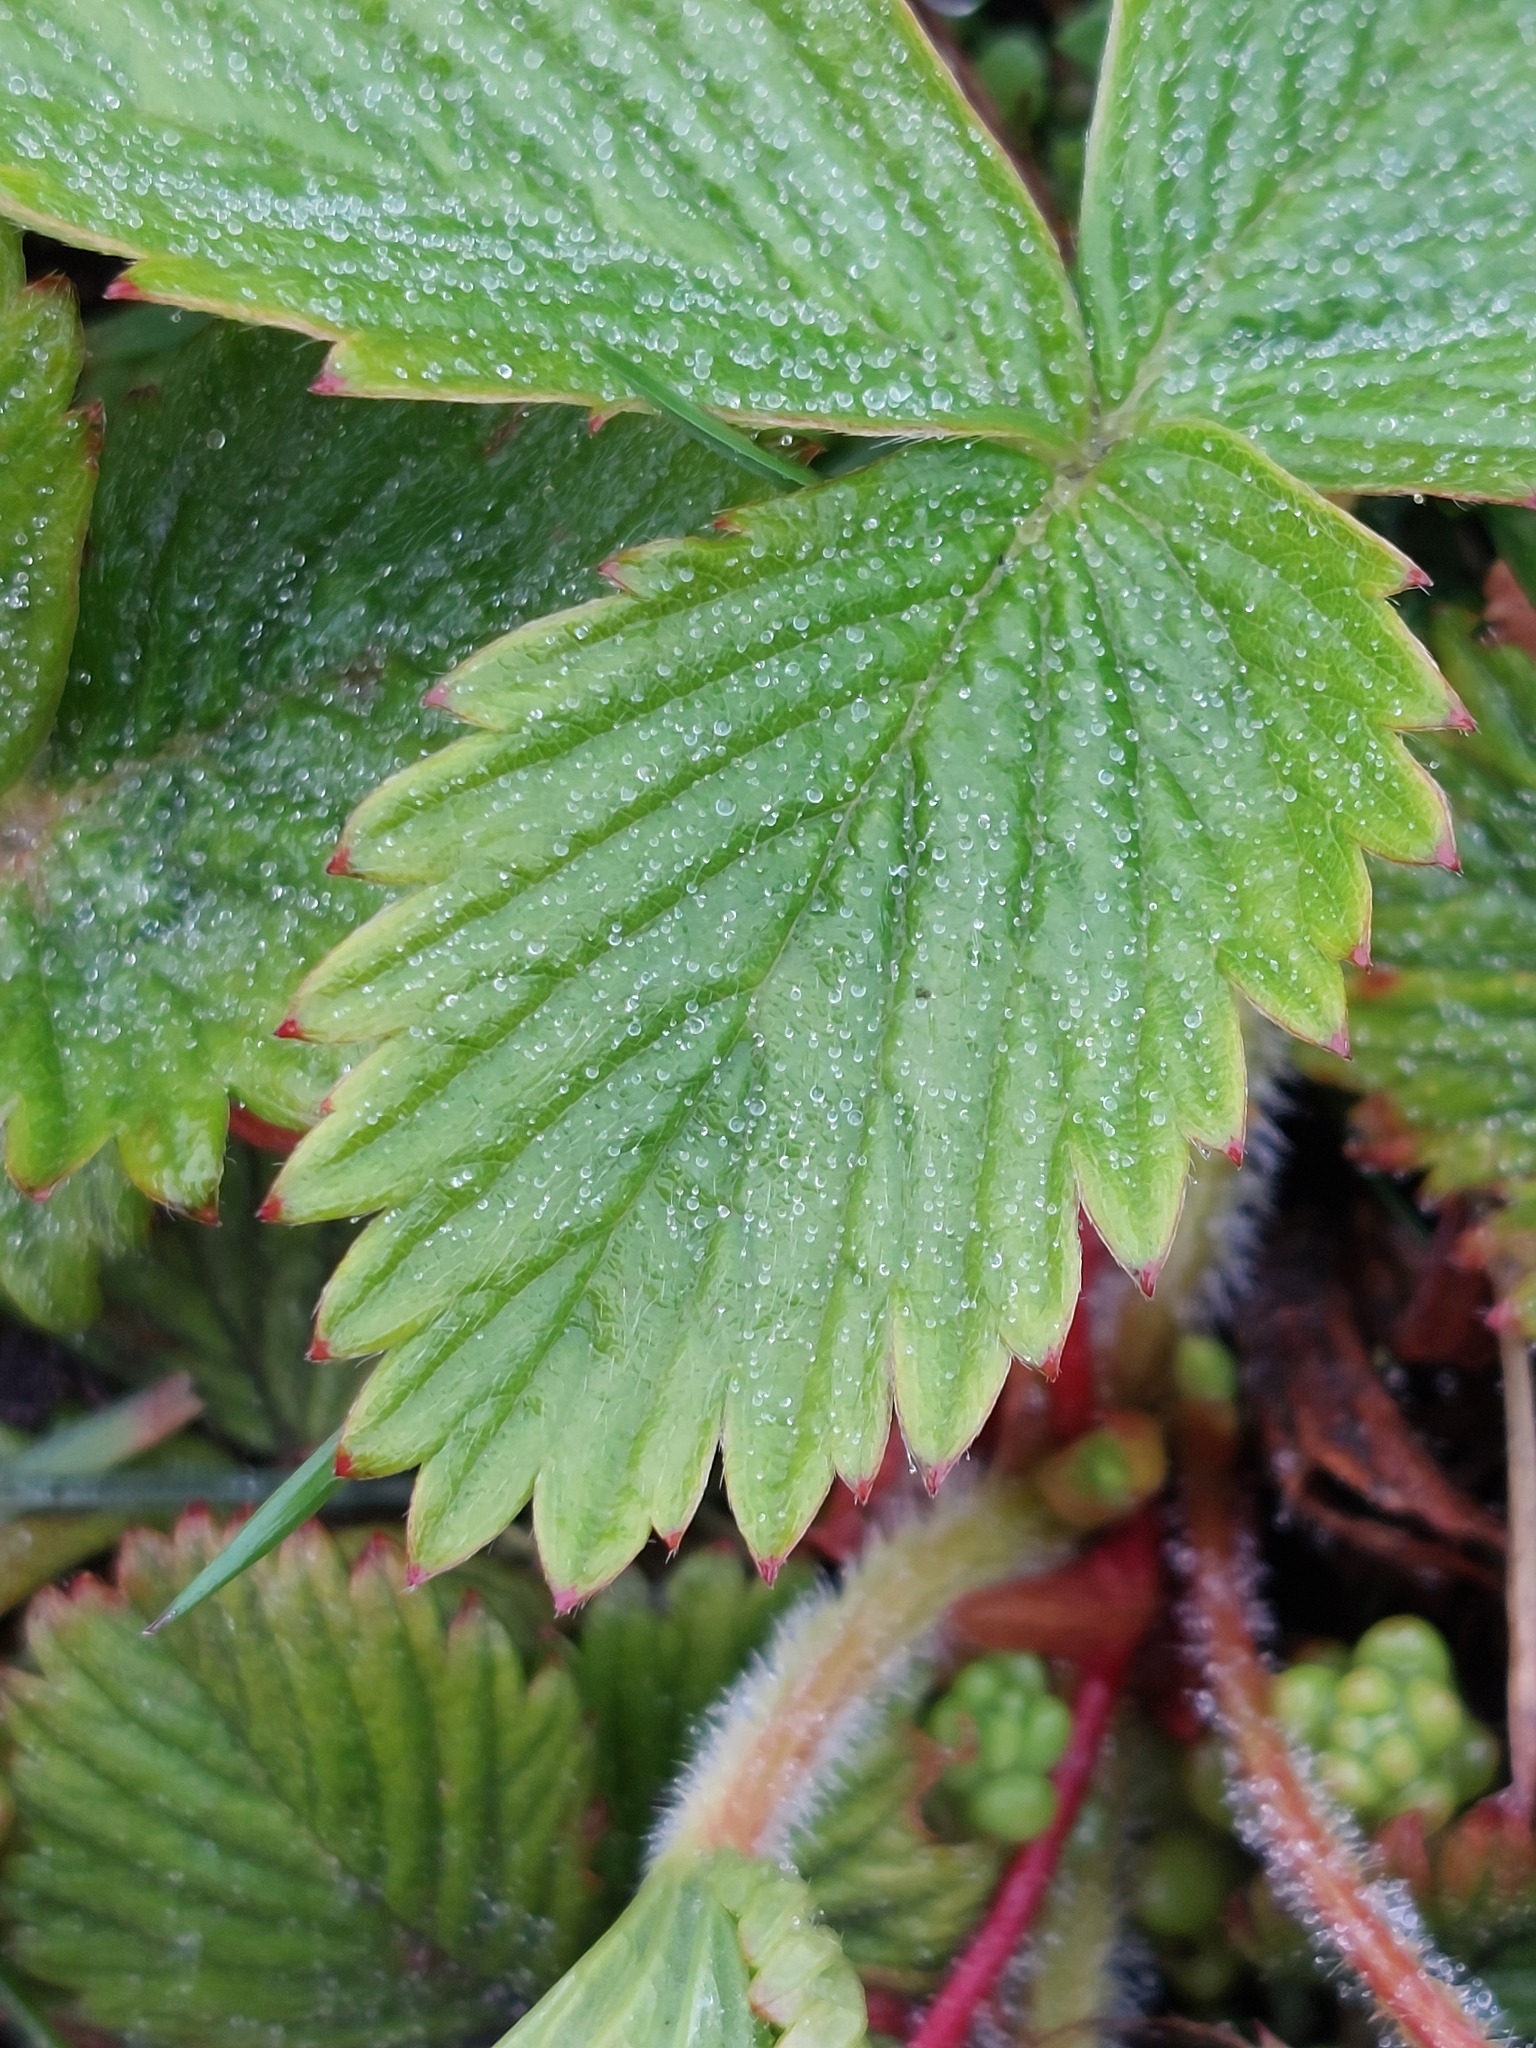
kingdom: Plantae
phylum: Tracheophyta
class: Magnoliopsida
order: Rosales
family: Rosaceae
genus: Fragaria
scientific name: Fragaria vesca
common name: Wild strawberry
